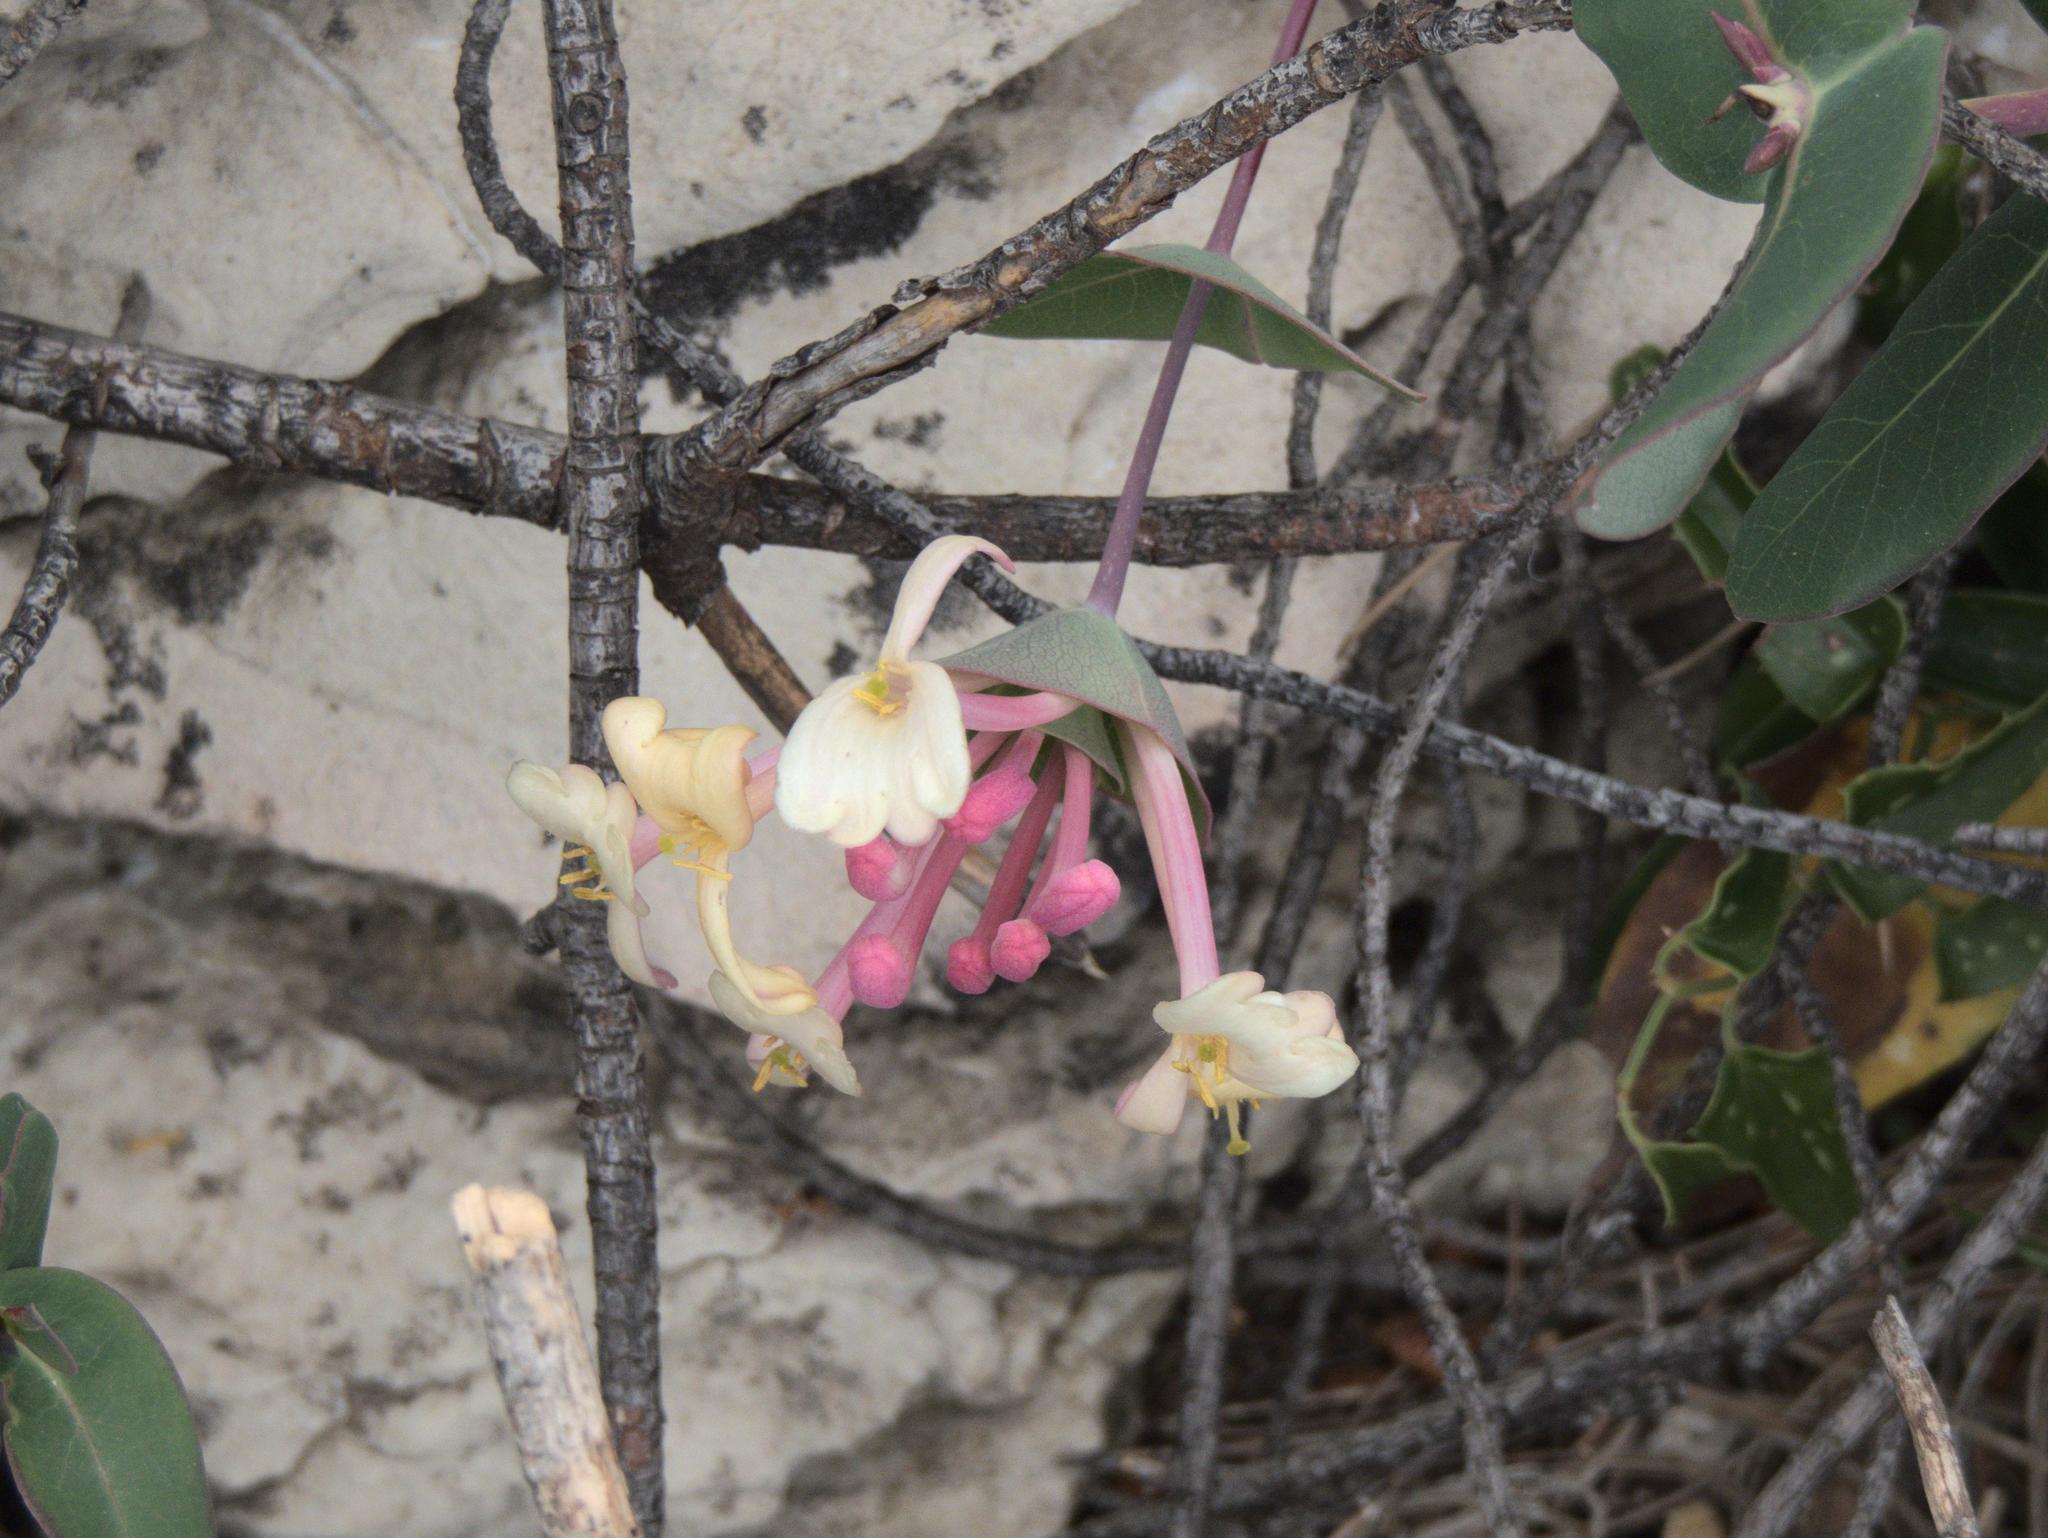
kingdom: Plantae
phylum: Tracheophyta
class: Magnoliopsida
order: Dipsacales
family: Caprifoliaceae
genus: Lonicera
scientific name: Lonicera implexa
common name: Minorca honeysuckle
